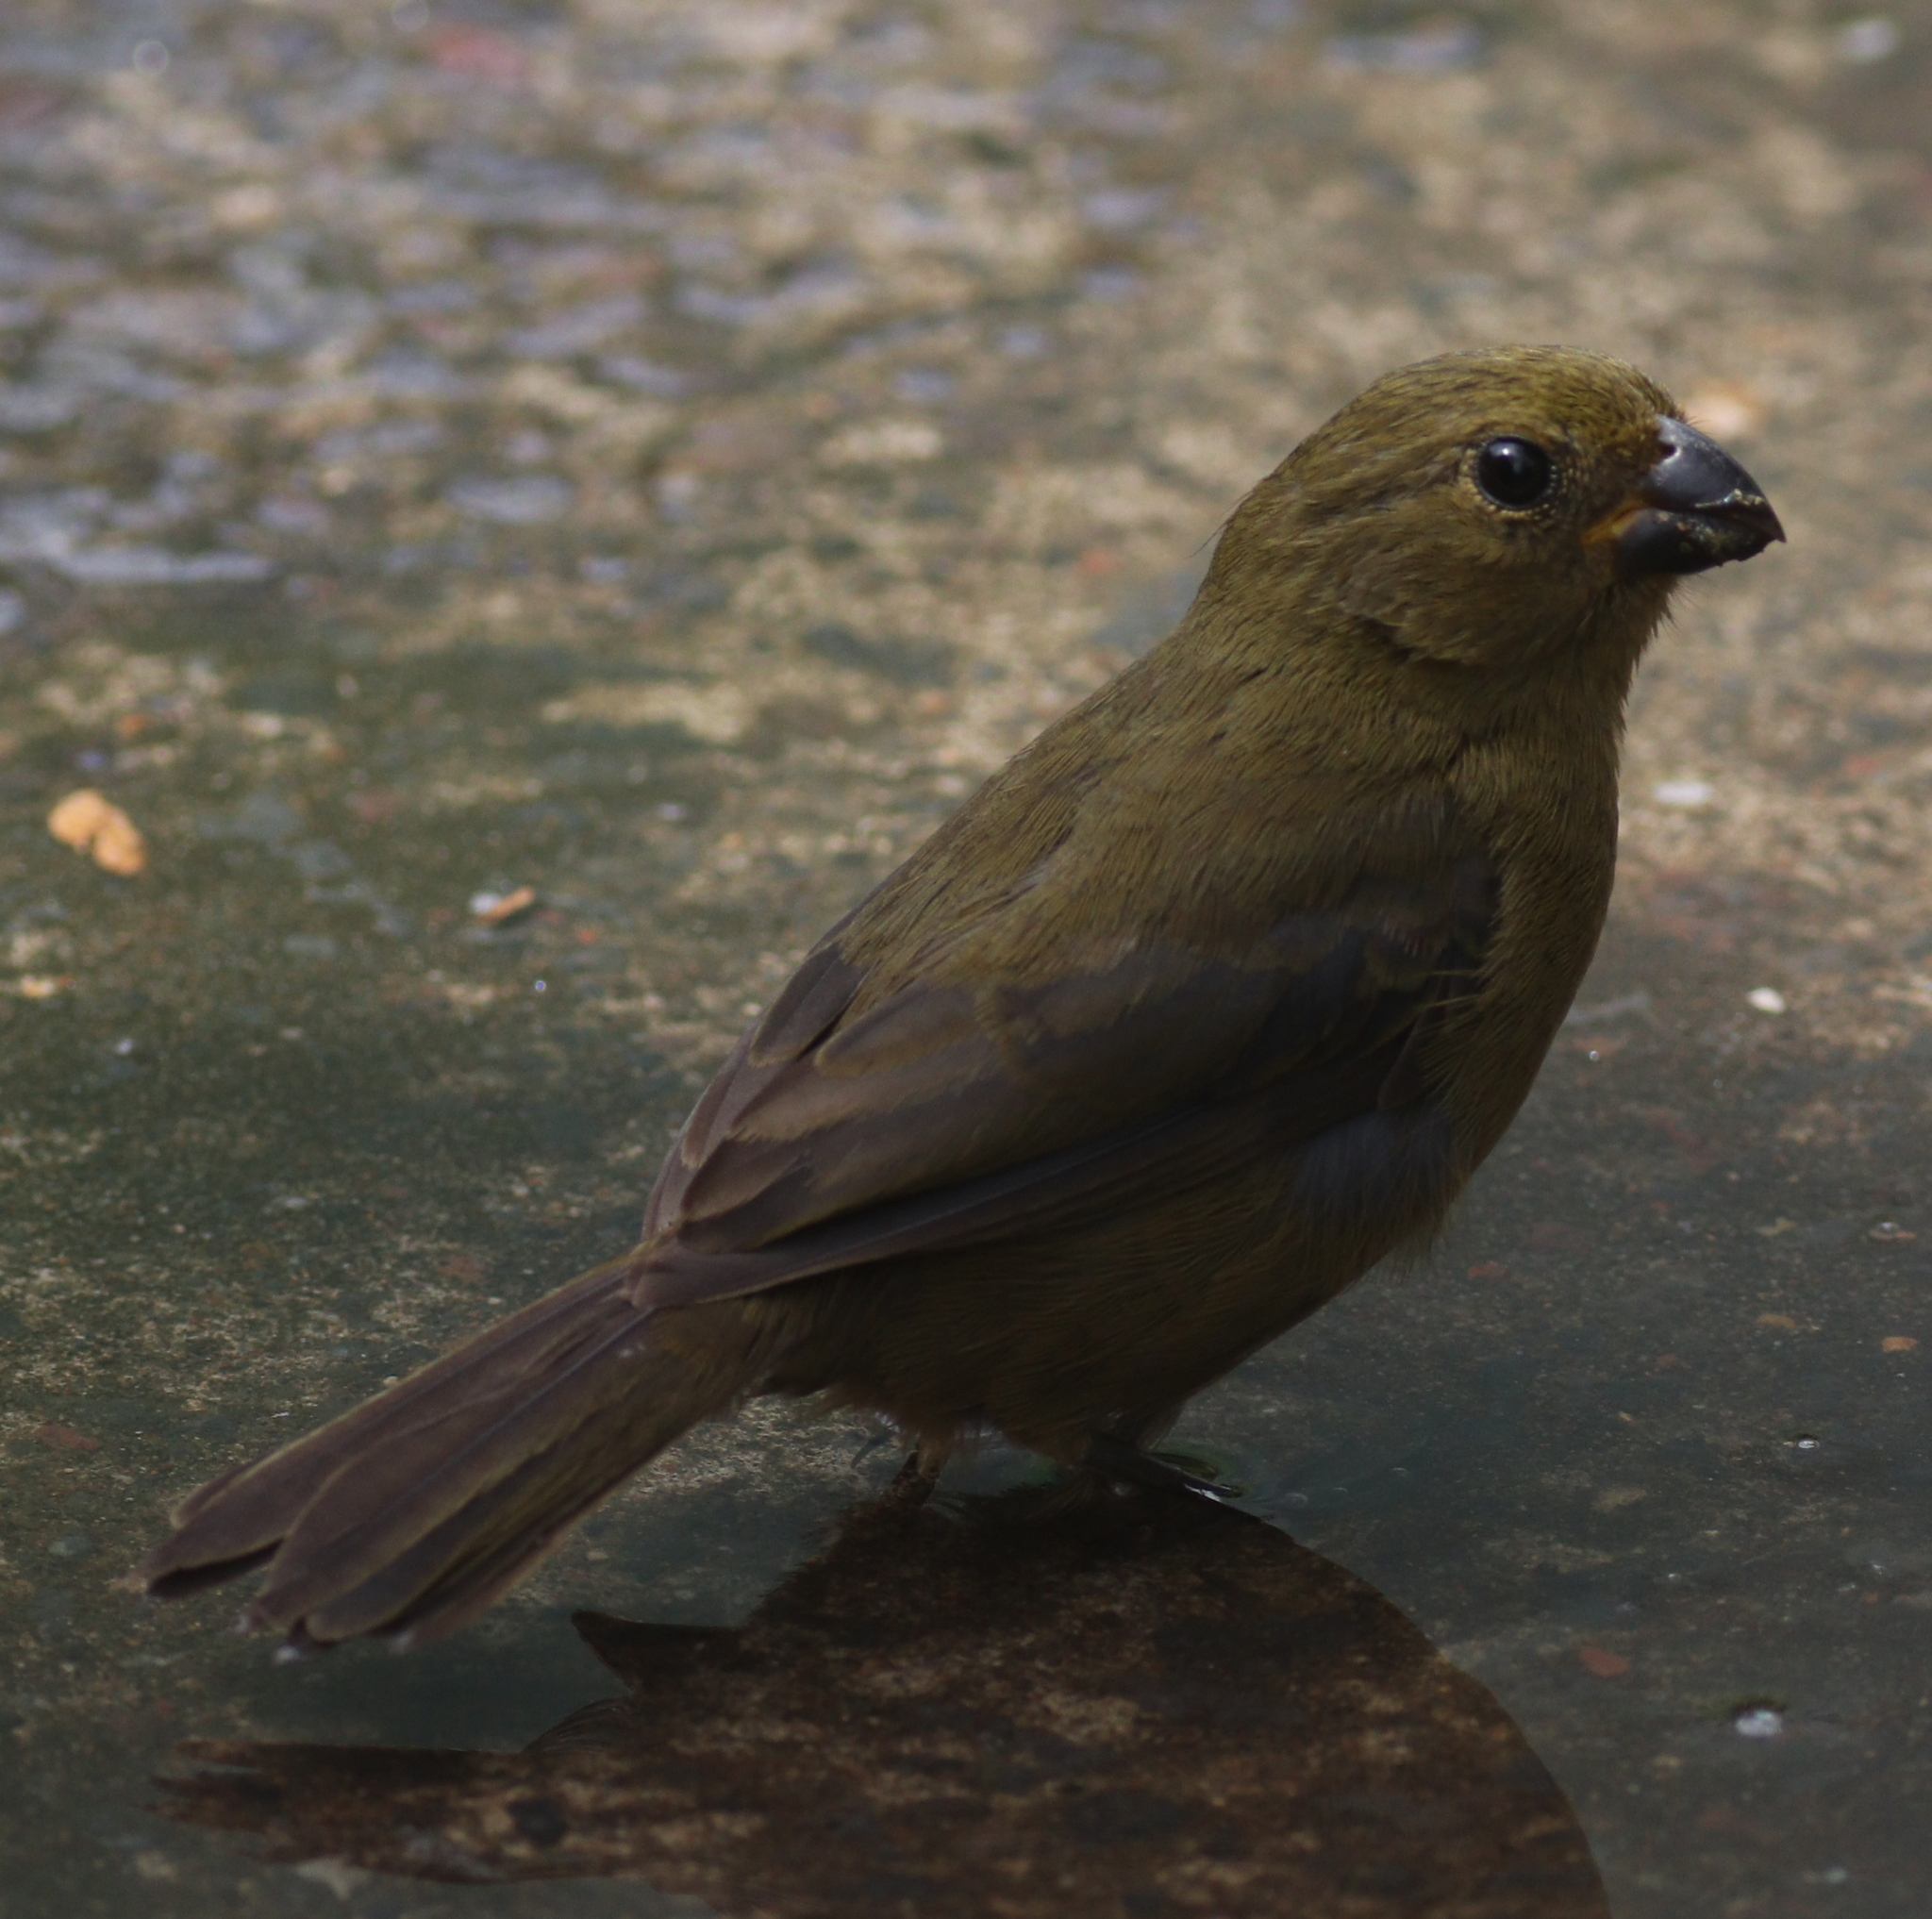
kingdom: Animalia
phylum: Chordata
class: Aves
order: Passeriformes
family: Thraupidae
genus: Sporophila
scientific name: Sporophila corvina
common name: Variable seedeater
